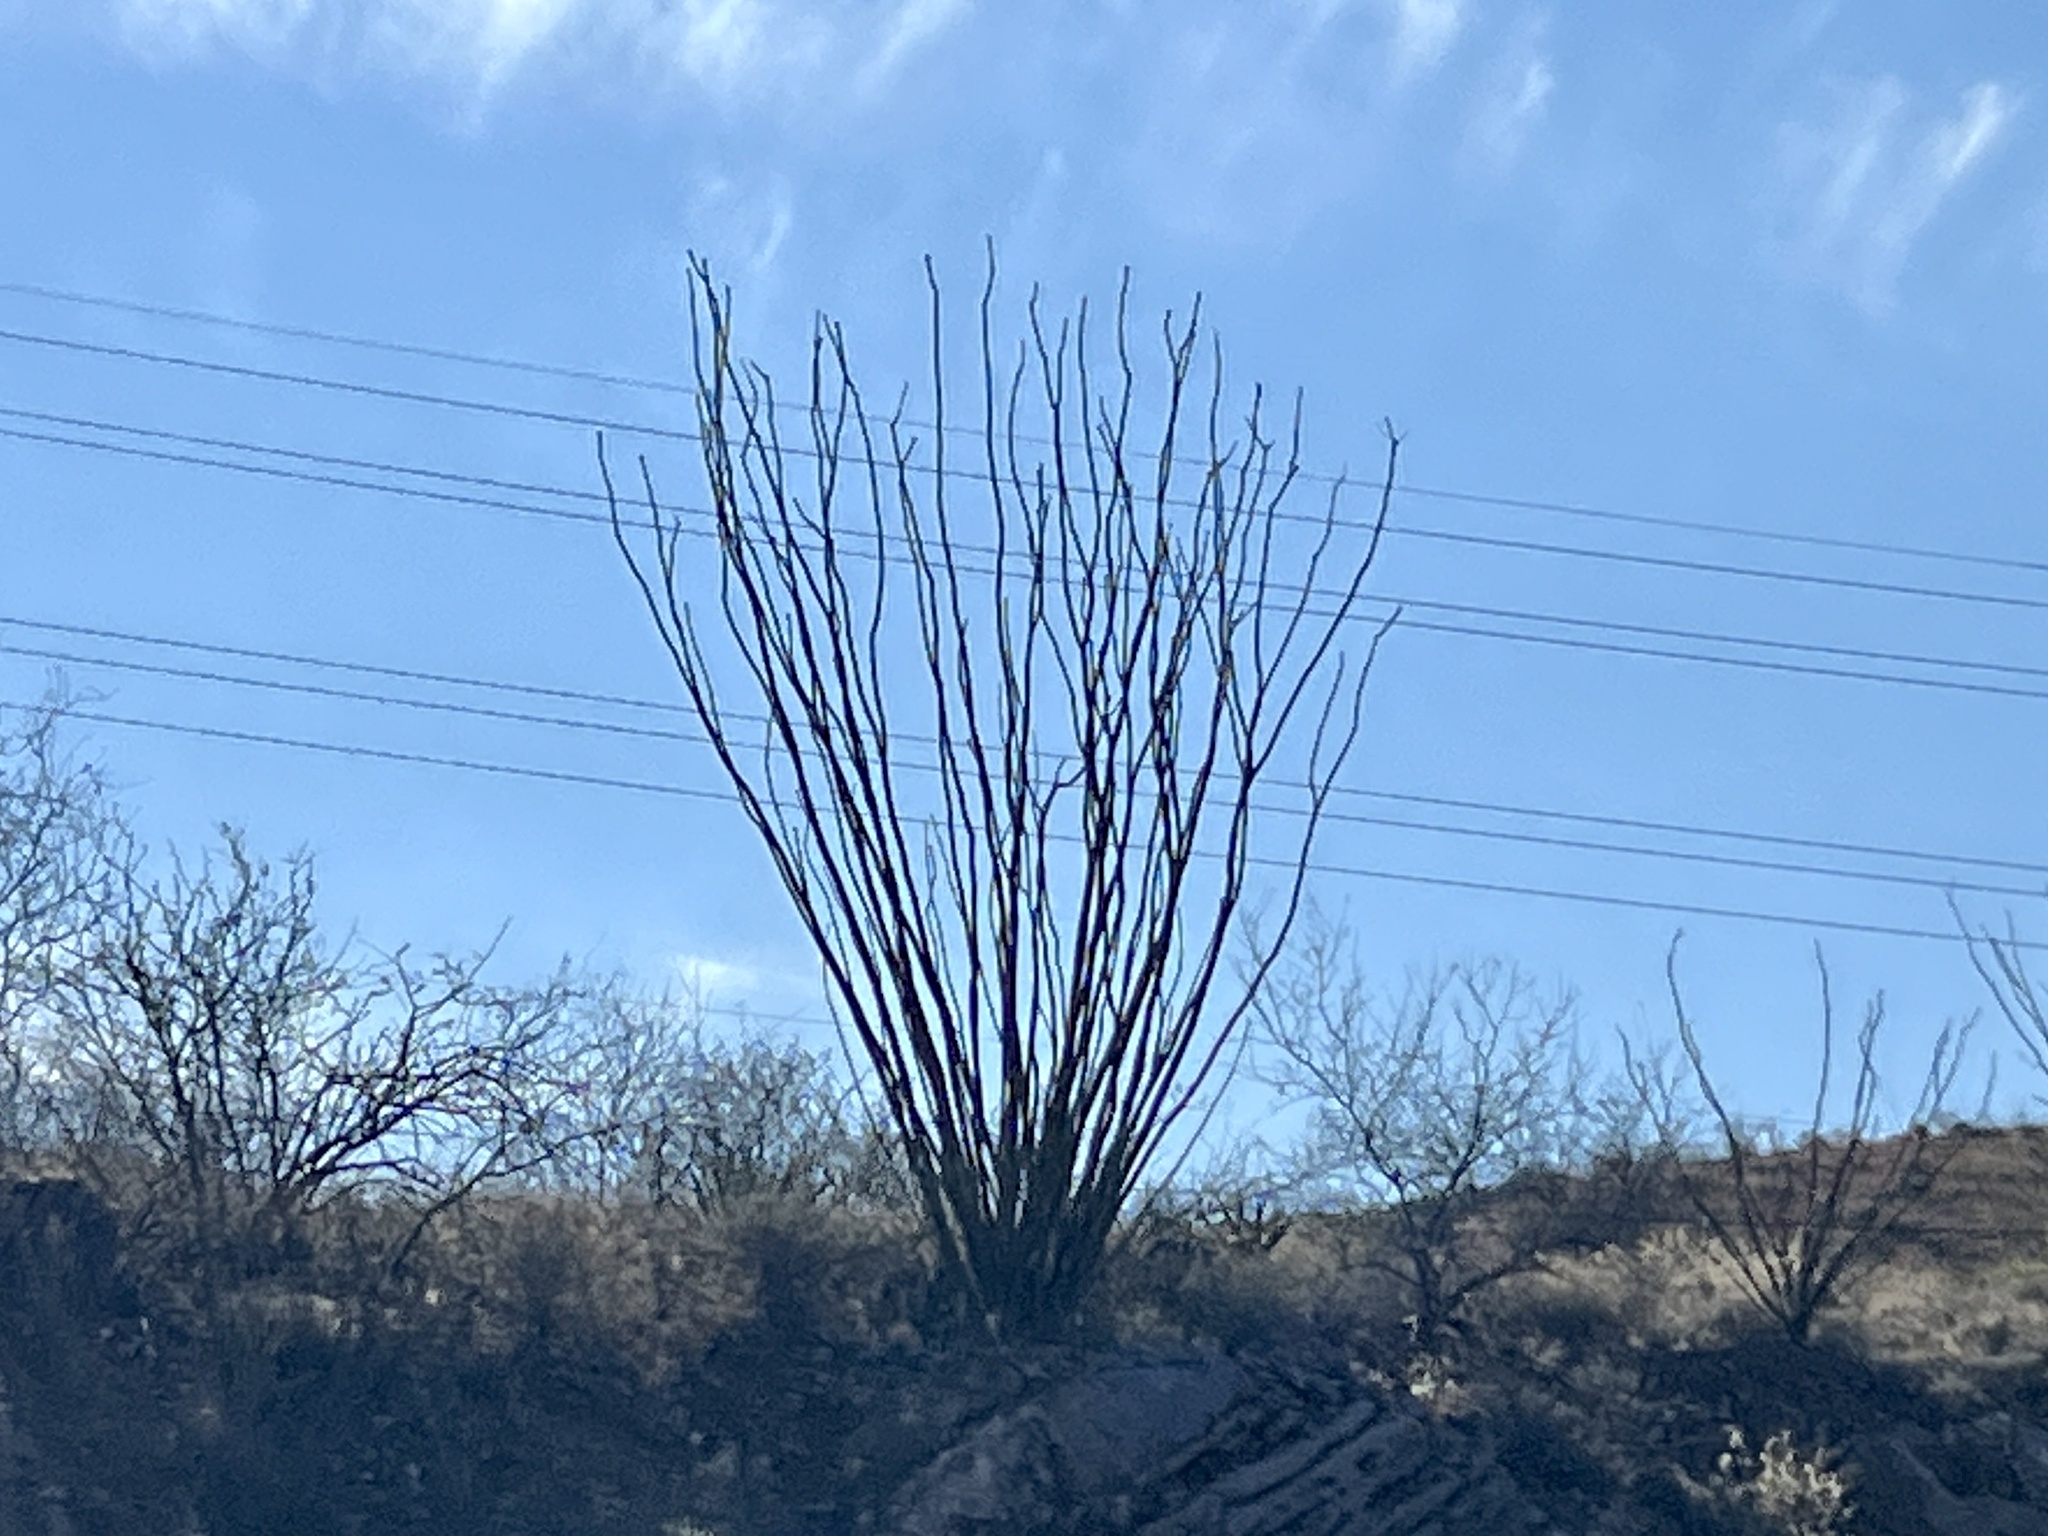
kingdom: Plantae
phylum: Tracheophyta
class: Magnoliopsida
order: Ericales
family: Fouquieriaceae
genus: Fouquieria
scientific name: Fouquieria splendens
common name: Vine-cactus
